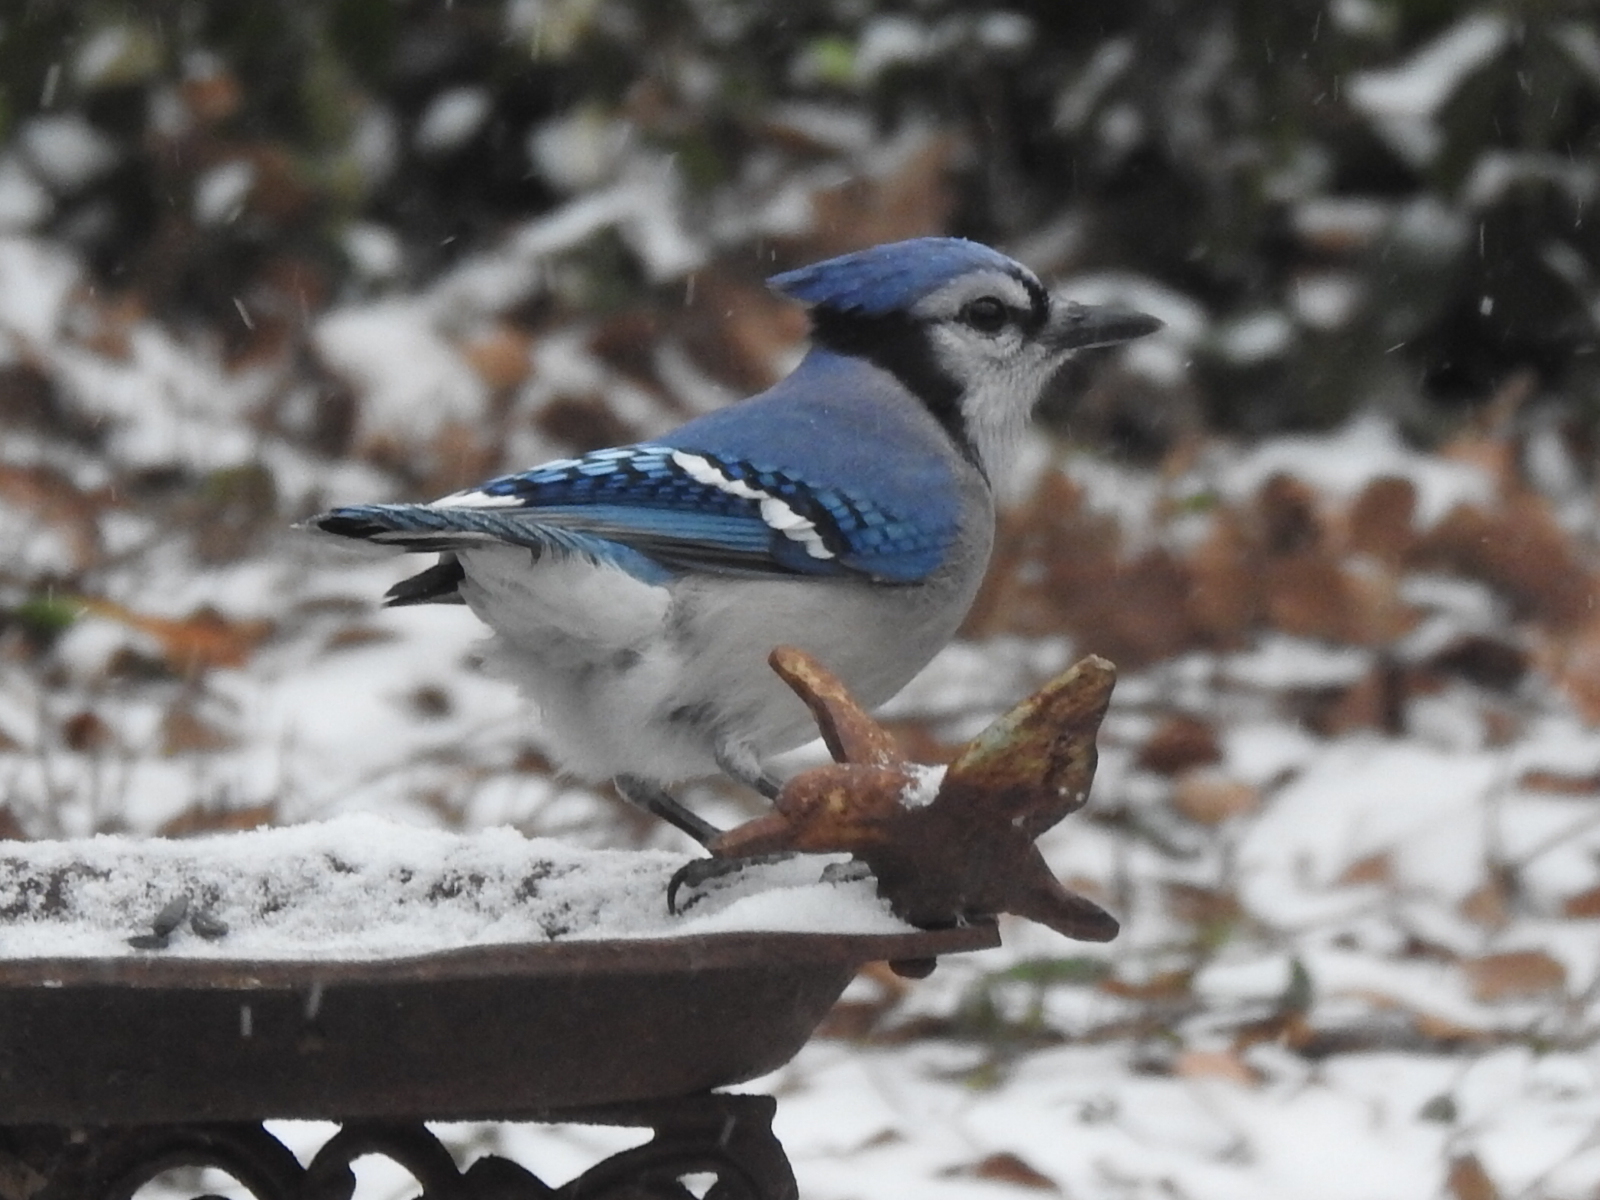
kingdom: Animalia
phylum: Chordata
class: Aves
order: Passeriformes
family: Corvidae
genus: Cyanocitta
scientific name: Cyanocitta cristata
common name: Blue jay
